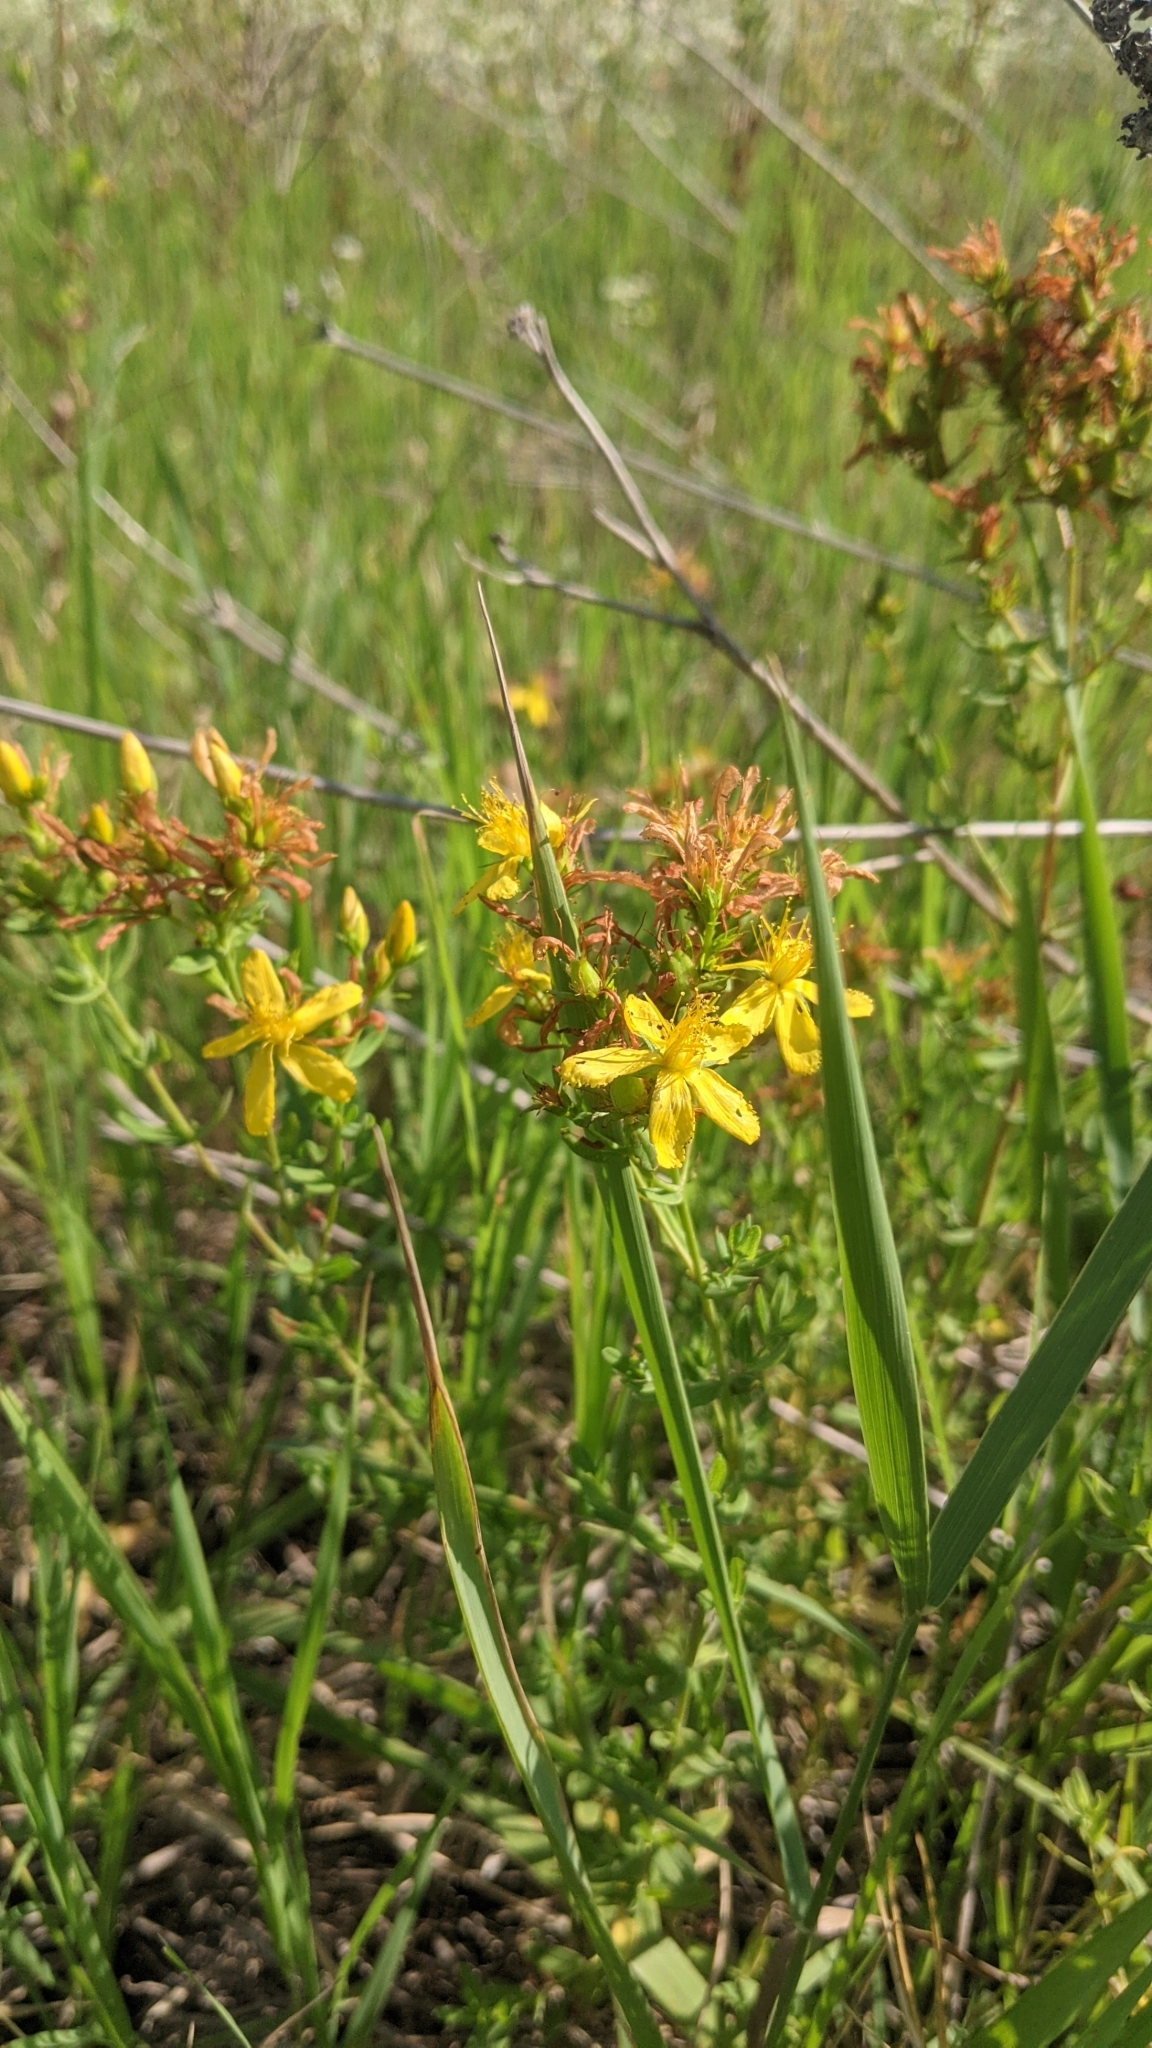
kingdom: Plantae
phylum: Tracheophyta
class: Magnoliopsida
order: Malpighiales
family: Hypericaceae
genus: Hypericum
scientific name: Hypericum perforatum
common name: Common st. johnswort
